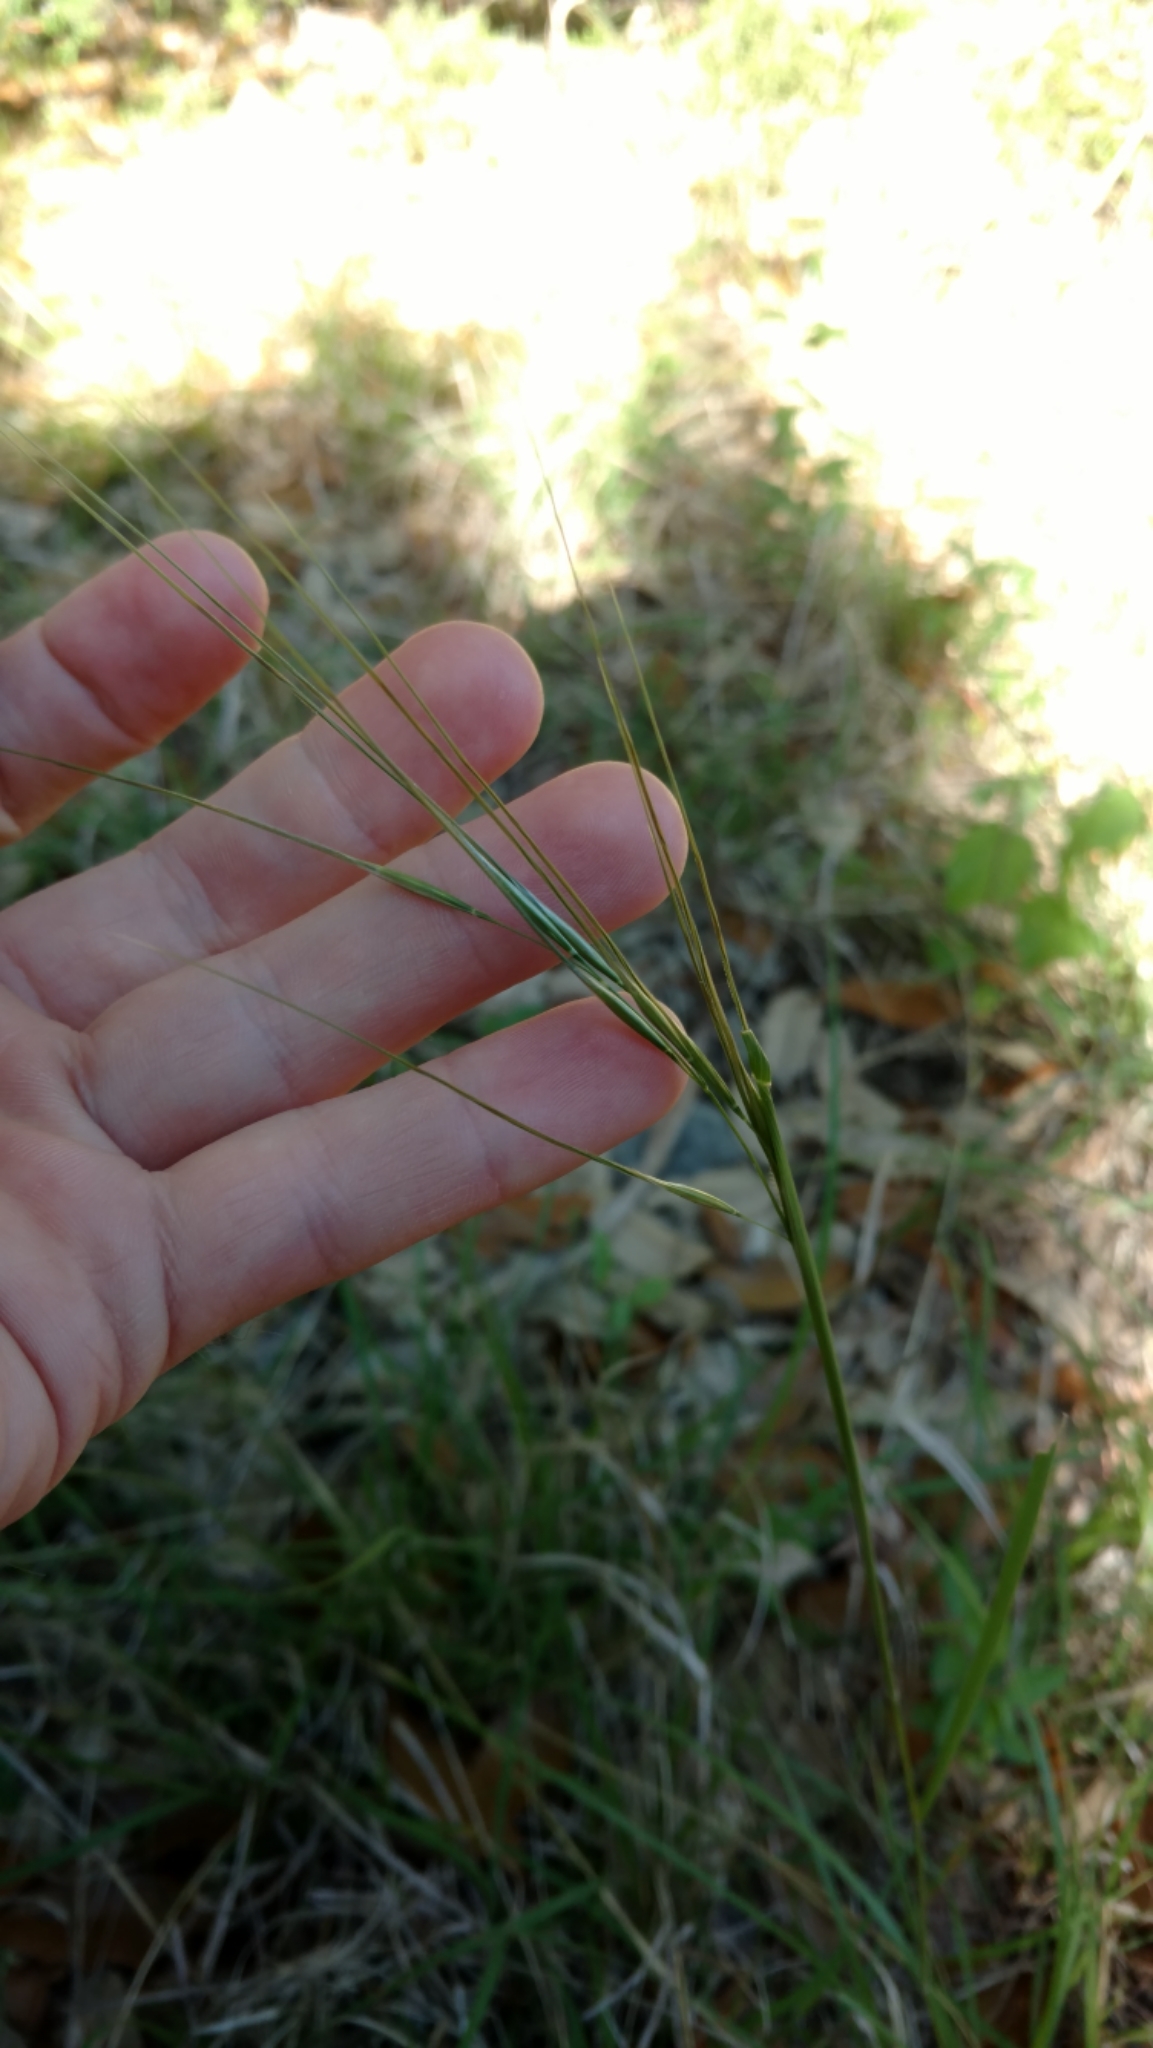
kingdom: Plantae
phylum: Tracheophyta
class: Liliopsida
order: Poales
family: Poaceae
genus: Nassella
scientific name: Nassella leucotricha
